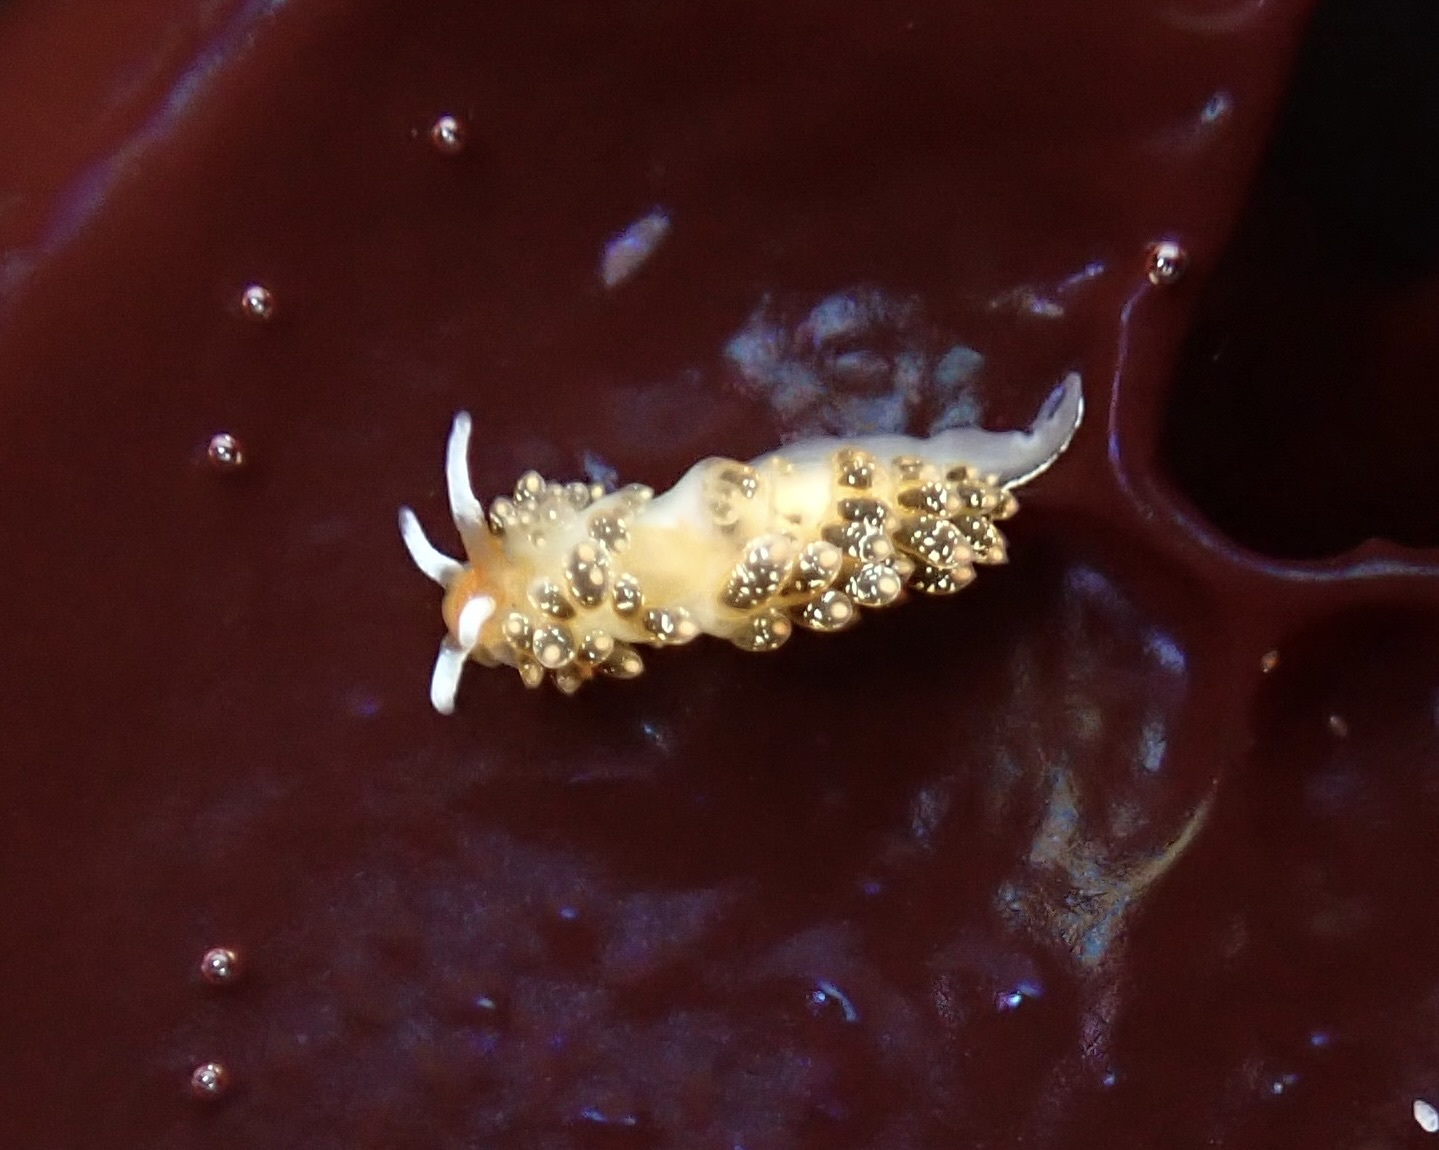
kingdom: Animalia
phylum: Mollusca
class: Gastropoda
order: Nudibranchia
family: Trinchesiidae
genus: Diaphoreolis
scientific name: Diaphoreolis flavovulta
